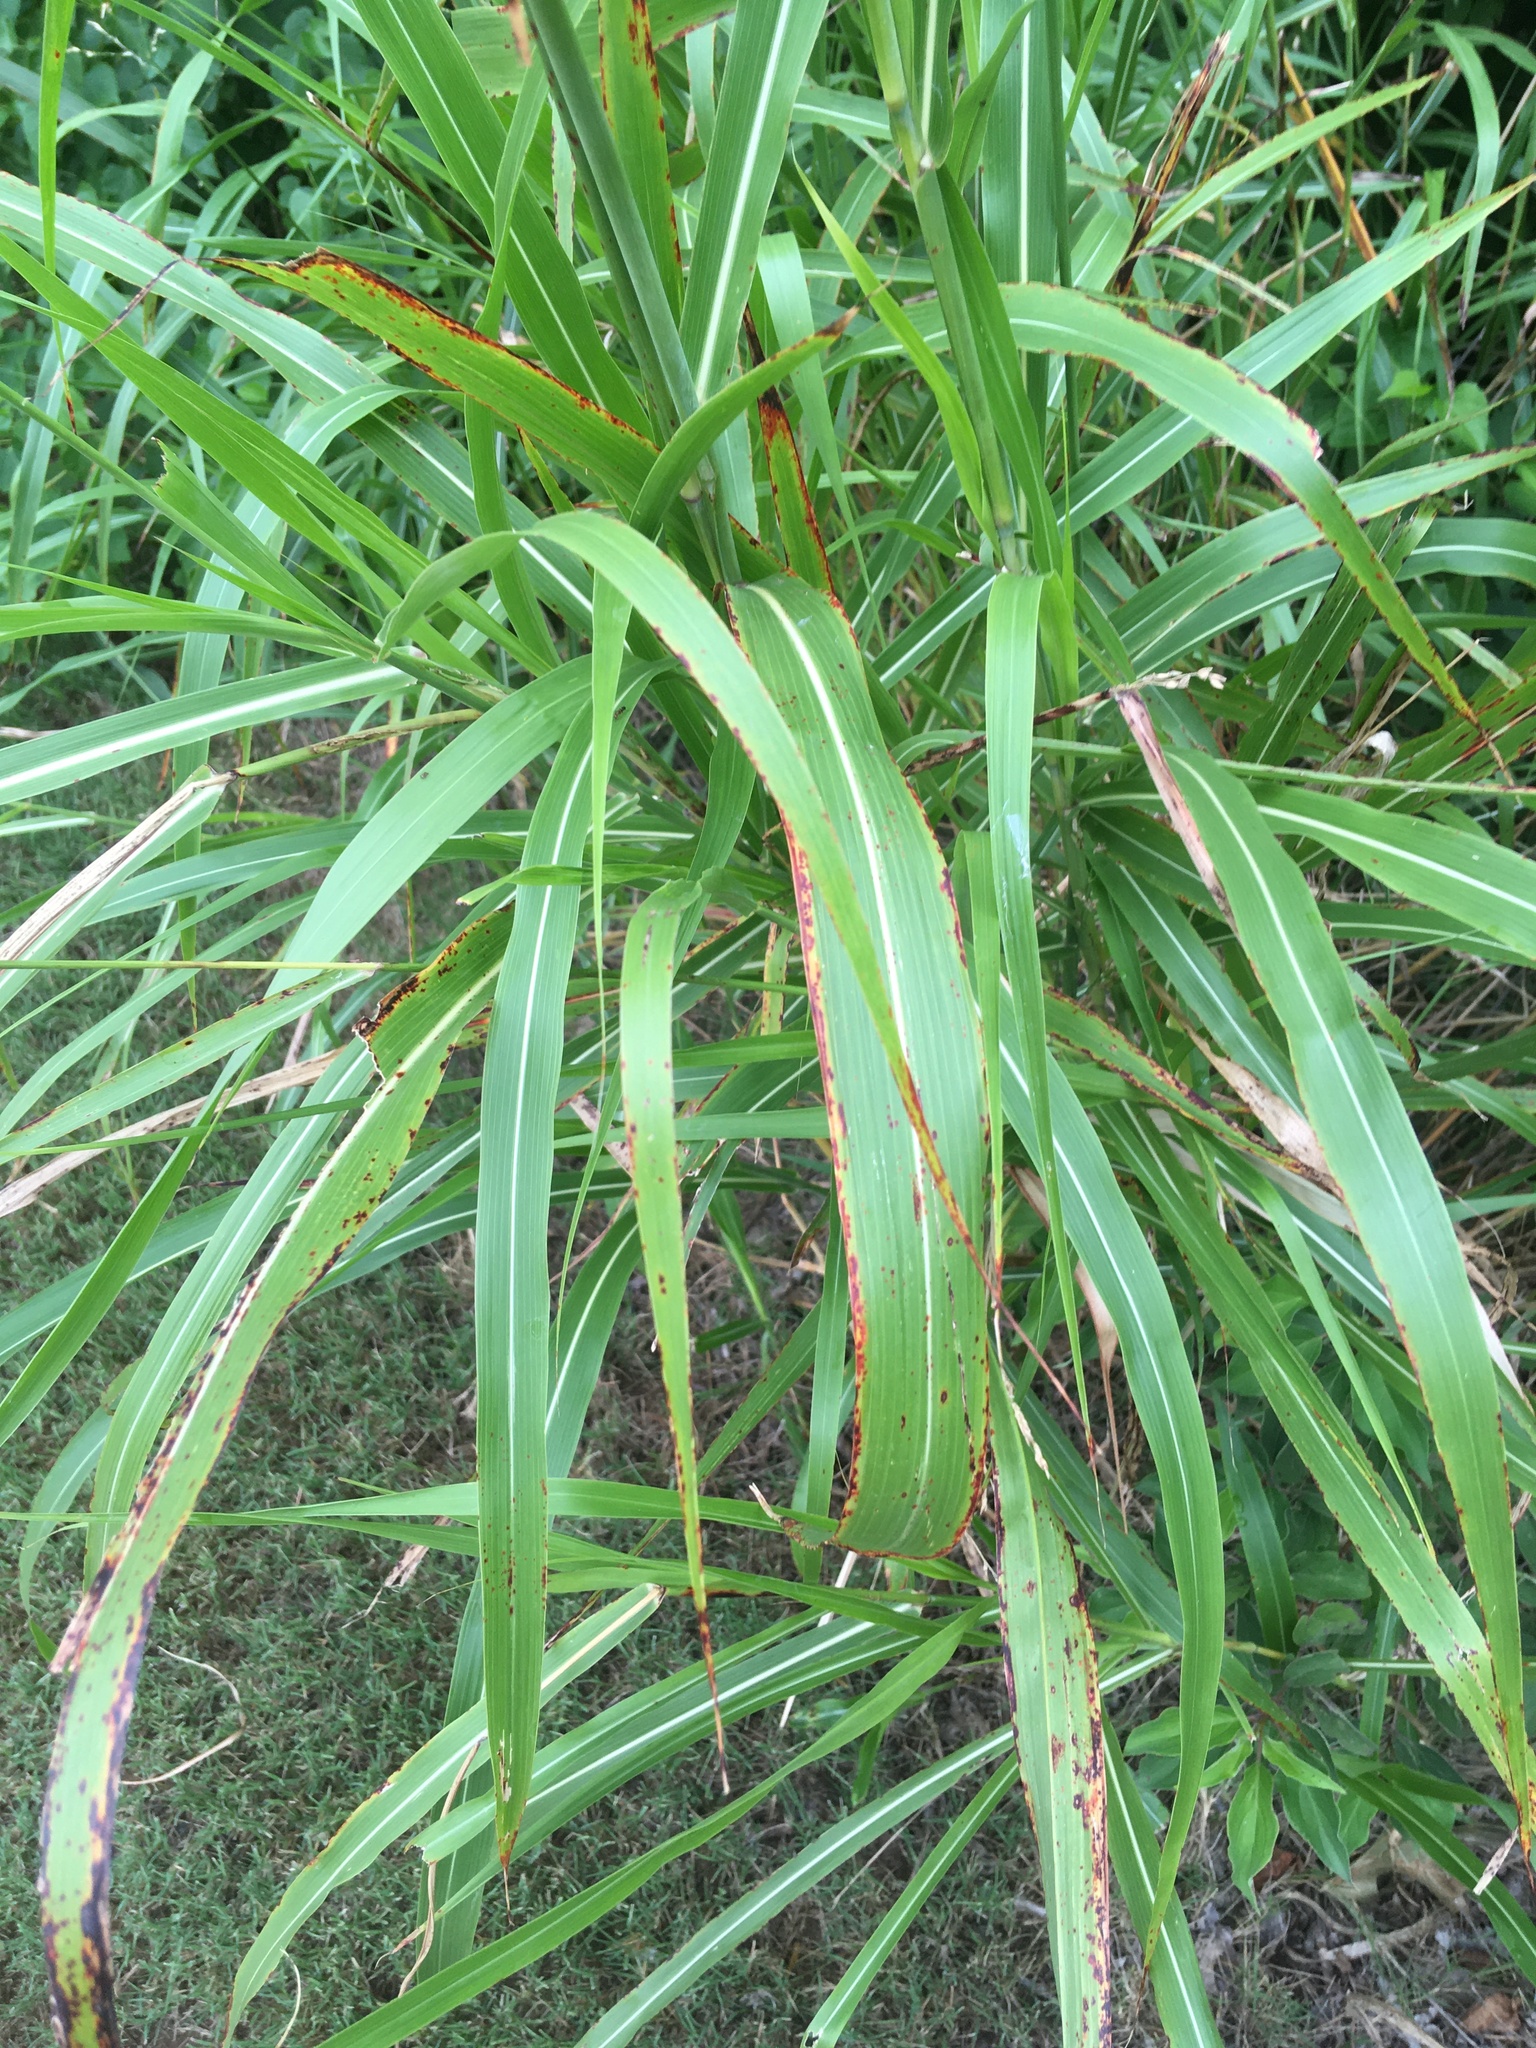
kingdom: Plantae
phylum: Tracheophyta
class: Liliopsida
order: Poales
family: Poaceae
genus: Sorghum
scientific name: Sorghum halepense
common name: Johnson-grass
